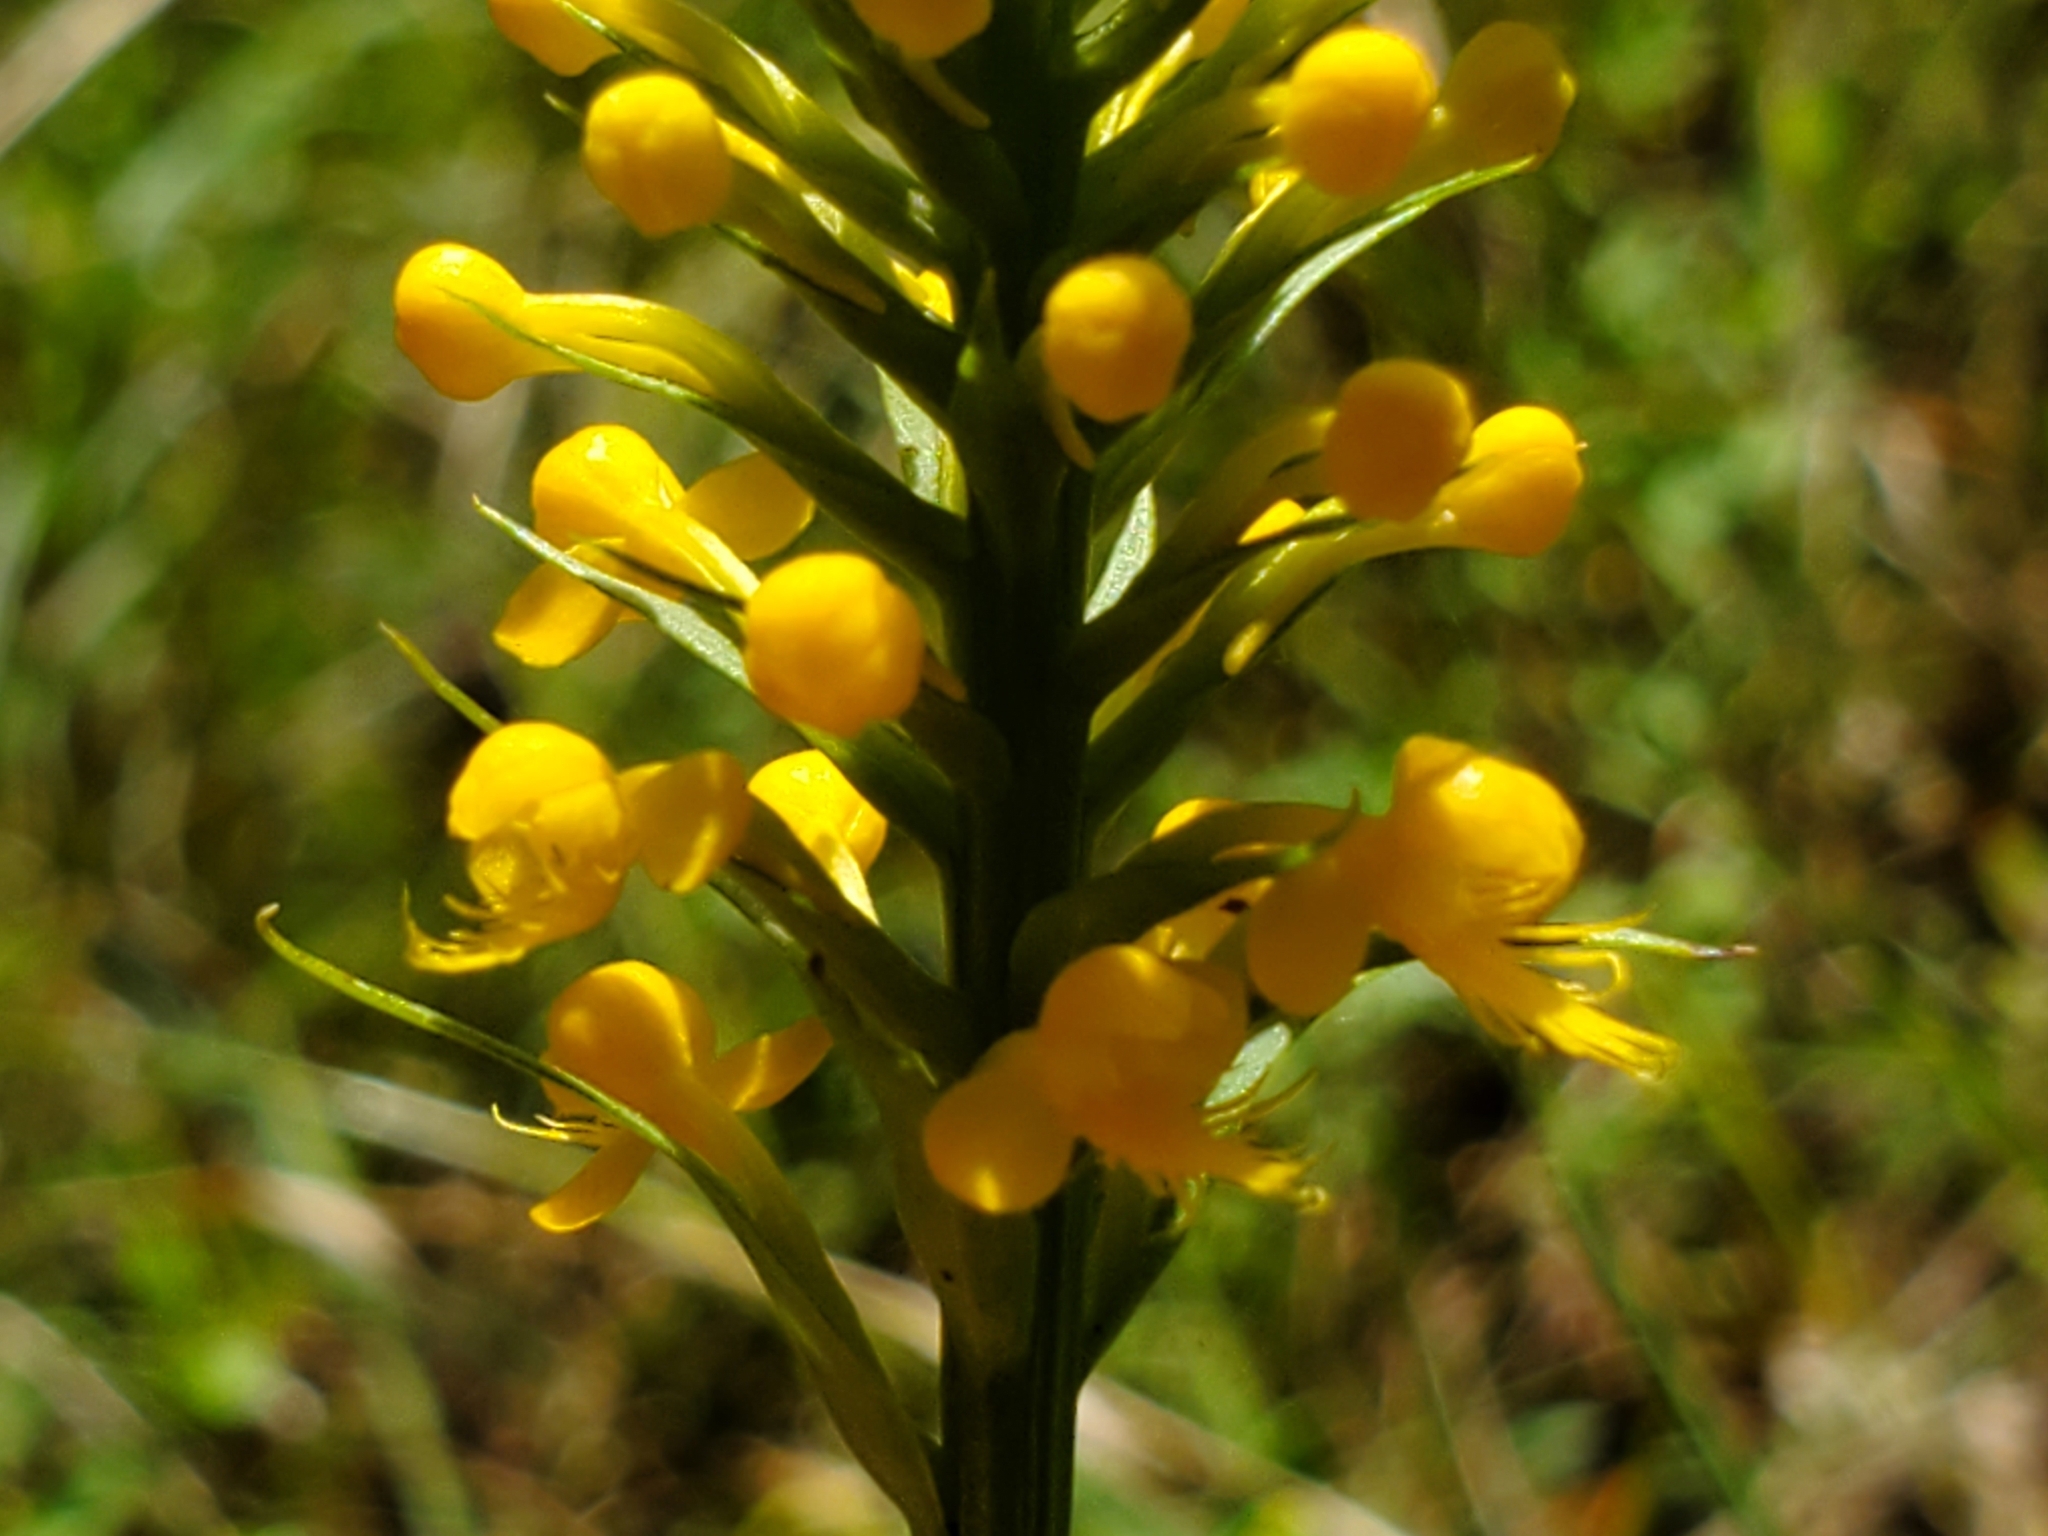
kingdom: Plantae
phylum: Tracheophyta
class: Liliopsida
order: Asparagales
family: Orchidaceae
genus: Platanthera
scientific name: Platanthera cristata
